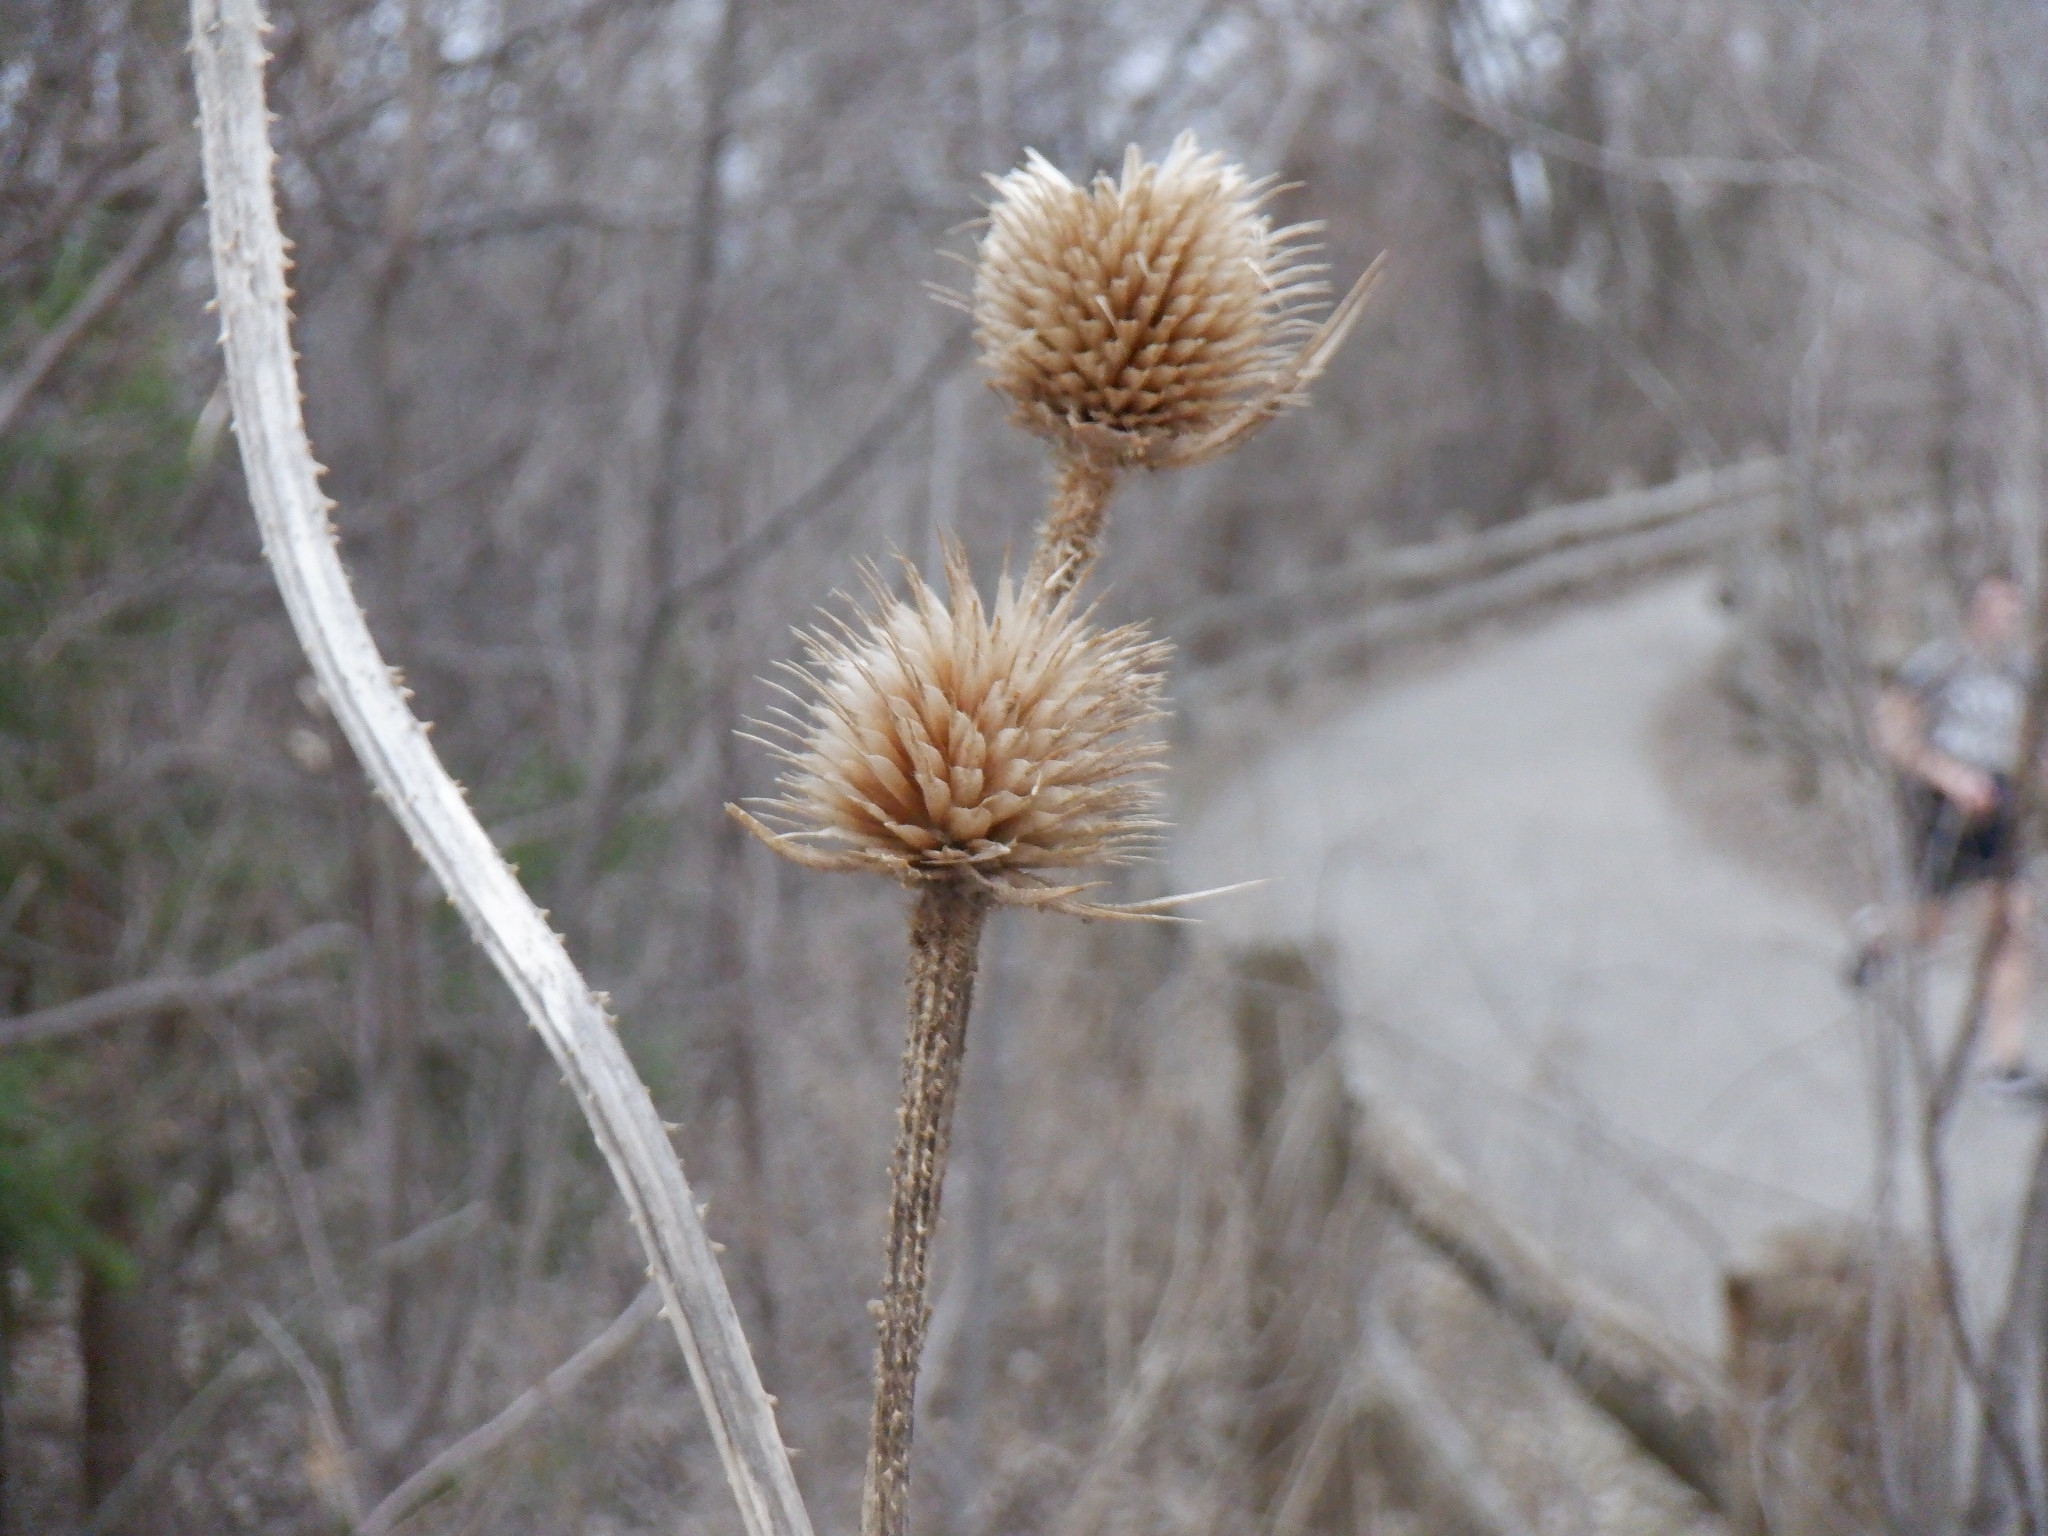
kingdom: Plantae
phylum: Tracheophyta
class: Magnoliopsida
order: Dipsacales
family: Caprifoliaceae
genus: Dipsacus
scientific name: Dipsacus laciniatus
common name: Cut-leaved teasel
